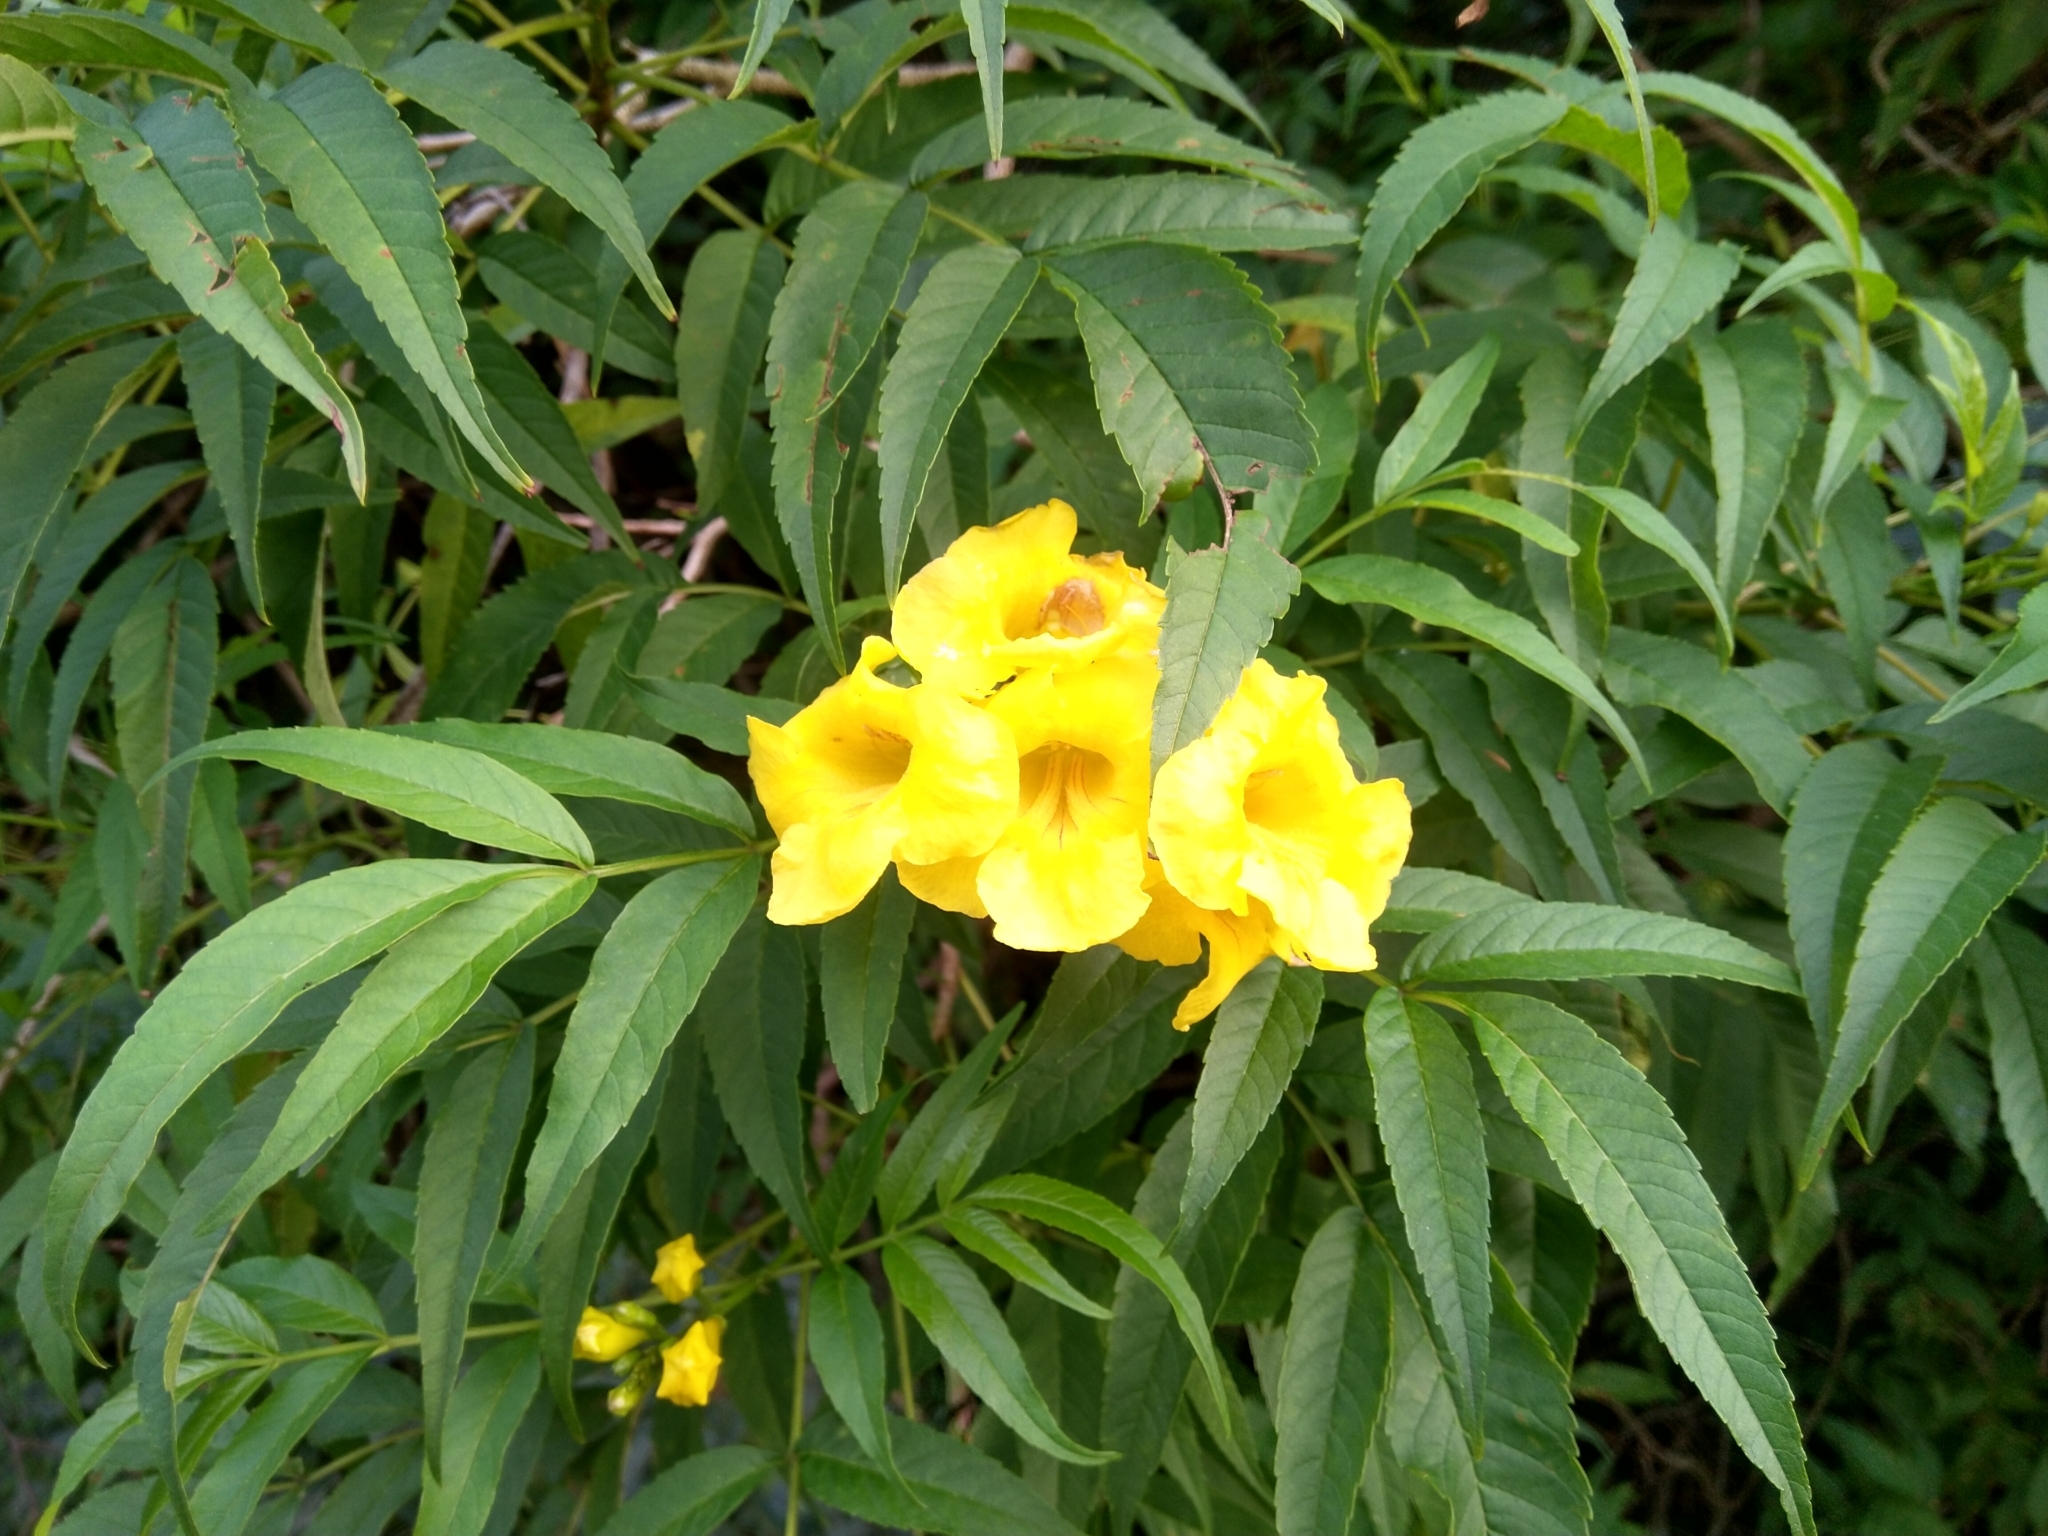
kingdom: Plantae
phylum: Tracheophyta
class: Magnoliopsida
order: Lamiales
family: Bignoniaceae
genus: Tecoma
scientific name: Tecoma stans
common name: Yellow trumpetbush
